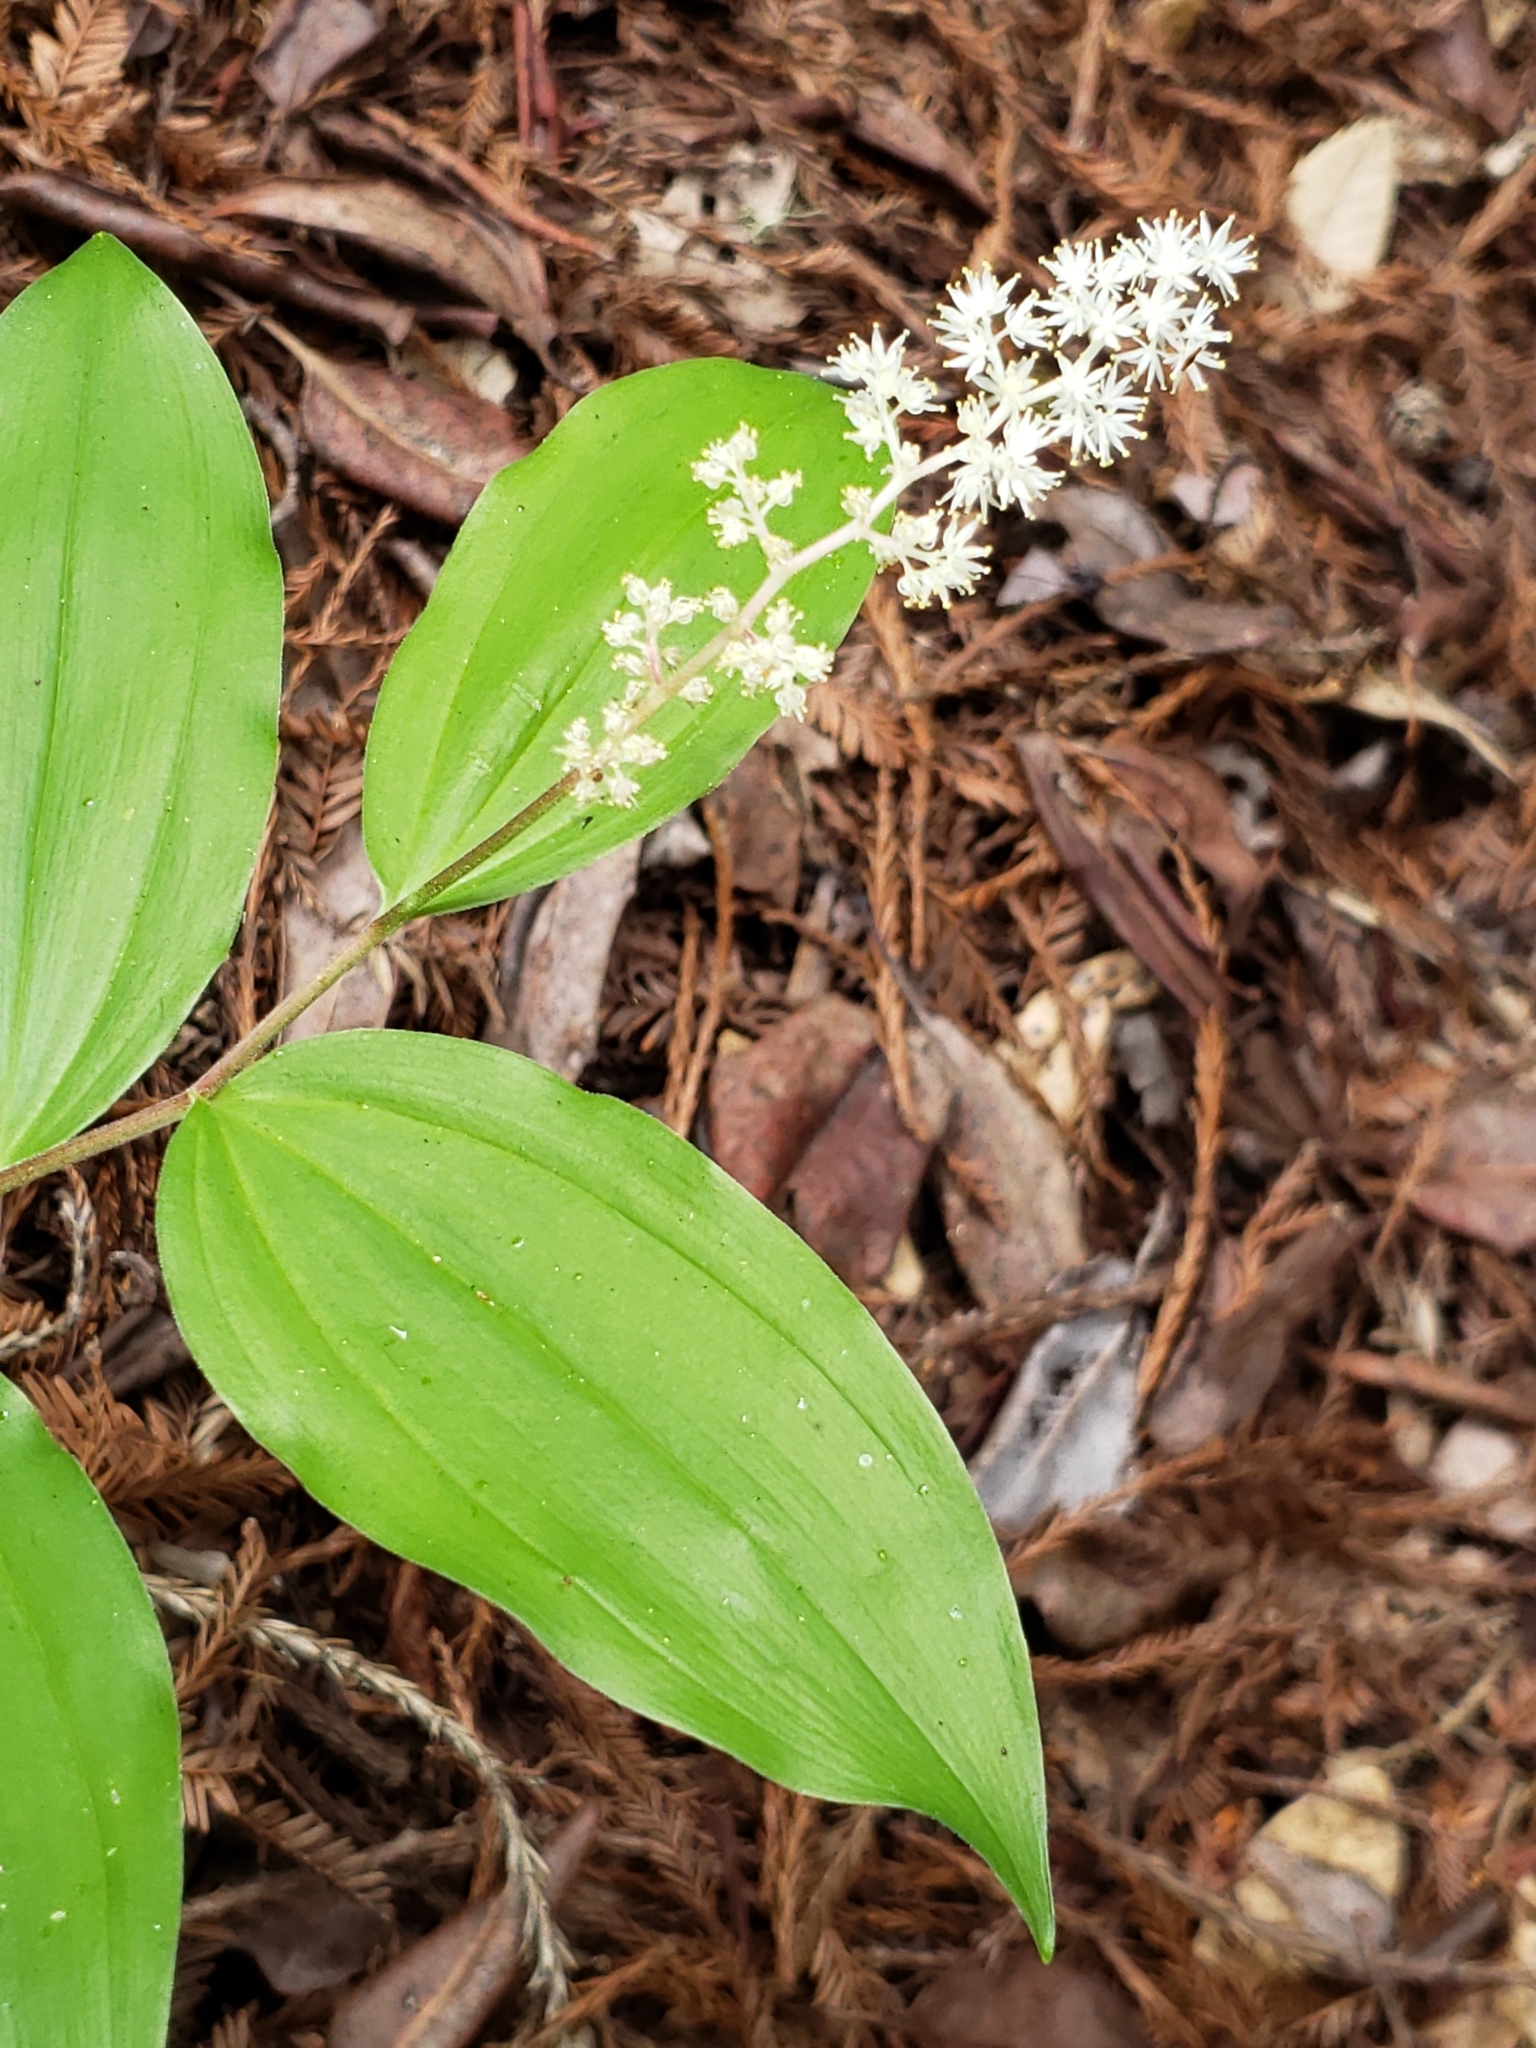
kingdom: Plantae
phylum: Tracheophyta
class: Liliopsida
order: Asparagales
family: Asparagaceae
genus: Maianthemum
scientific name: Maianthemum racemosum
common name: False spikenard
